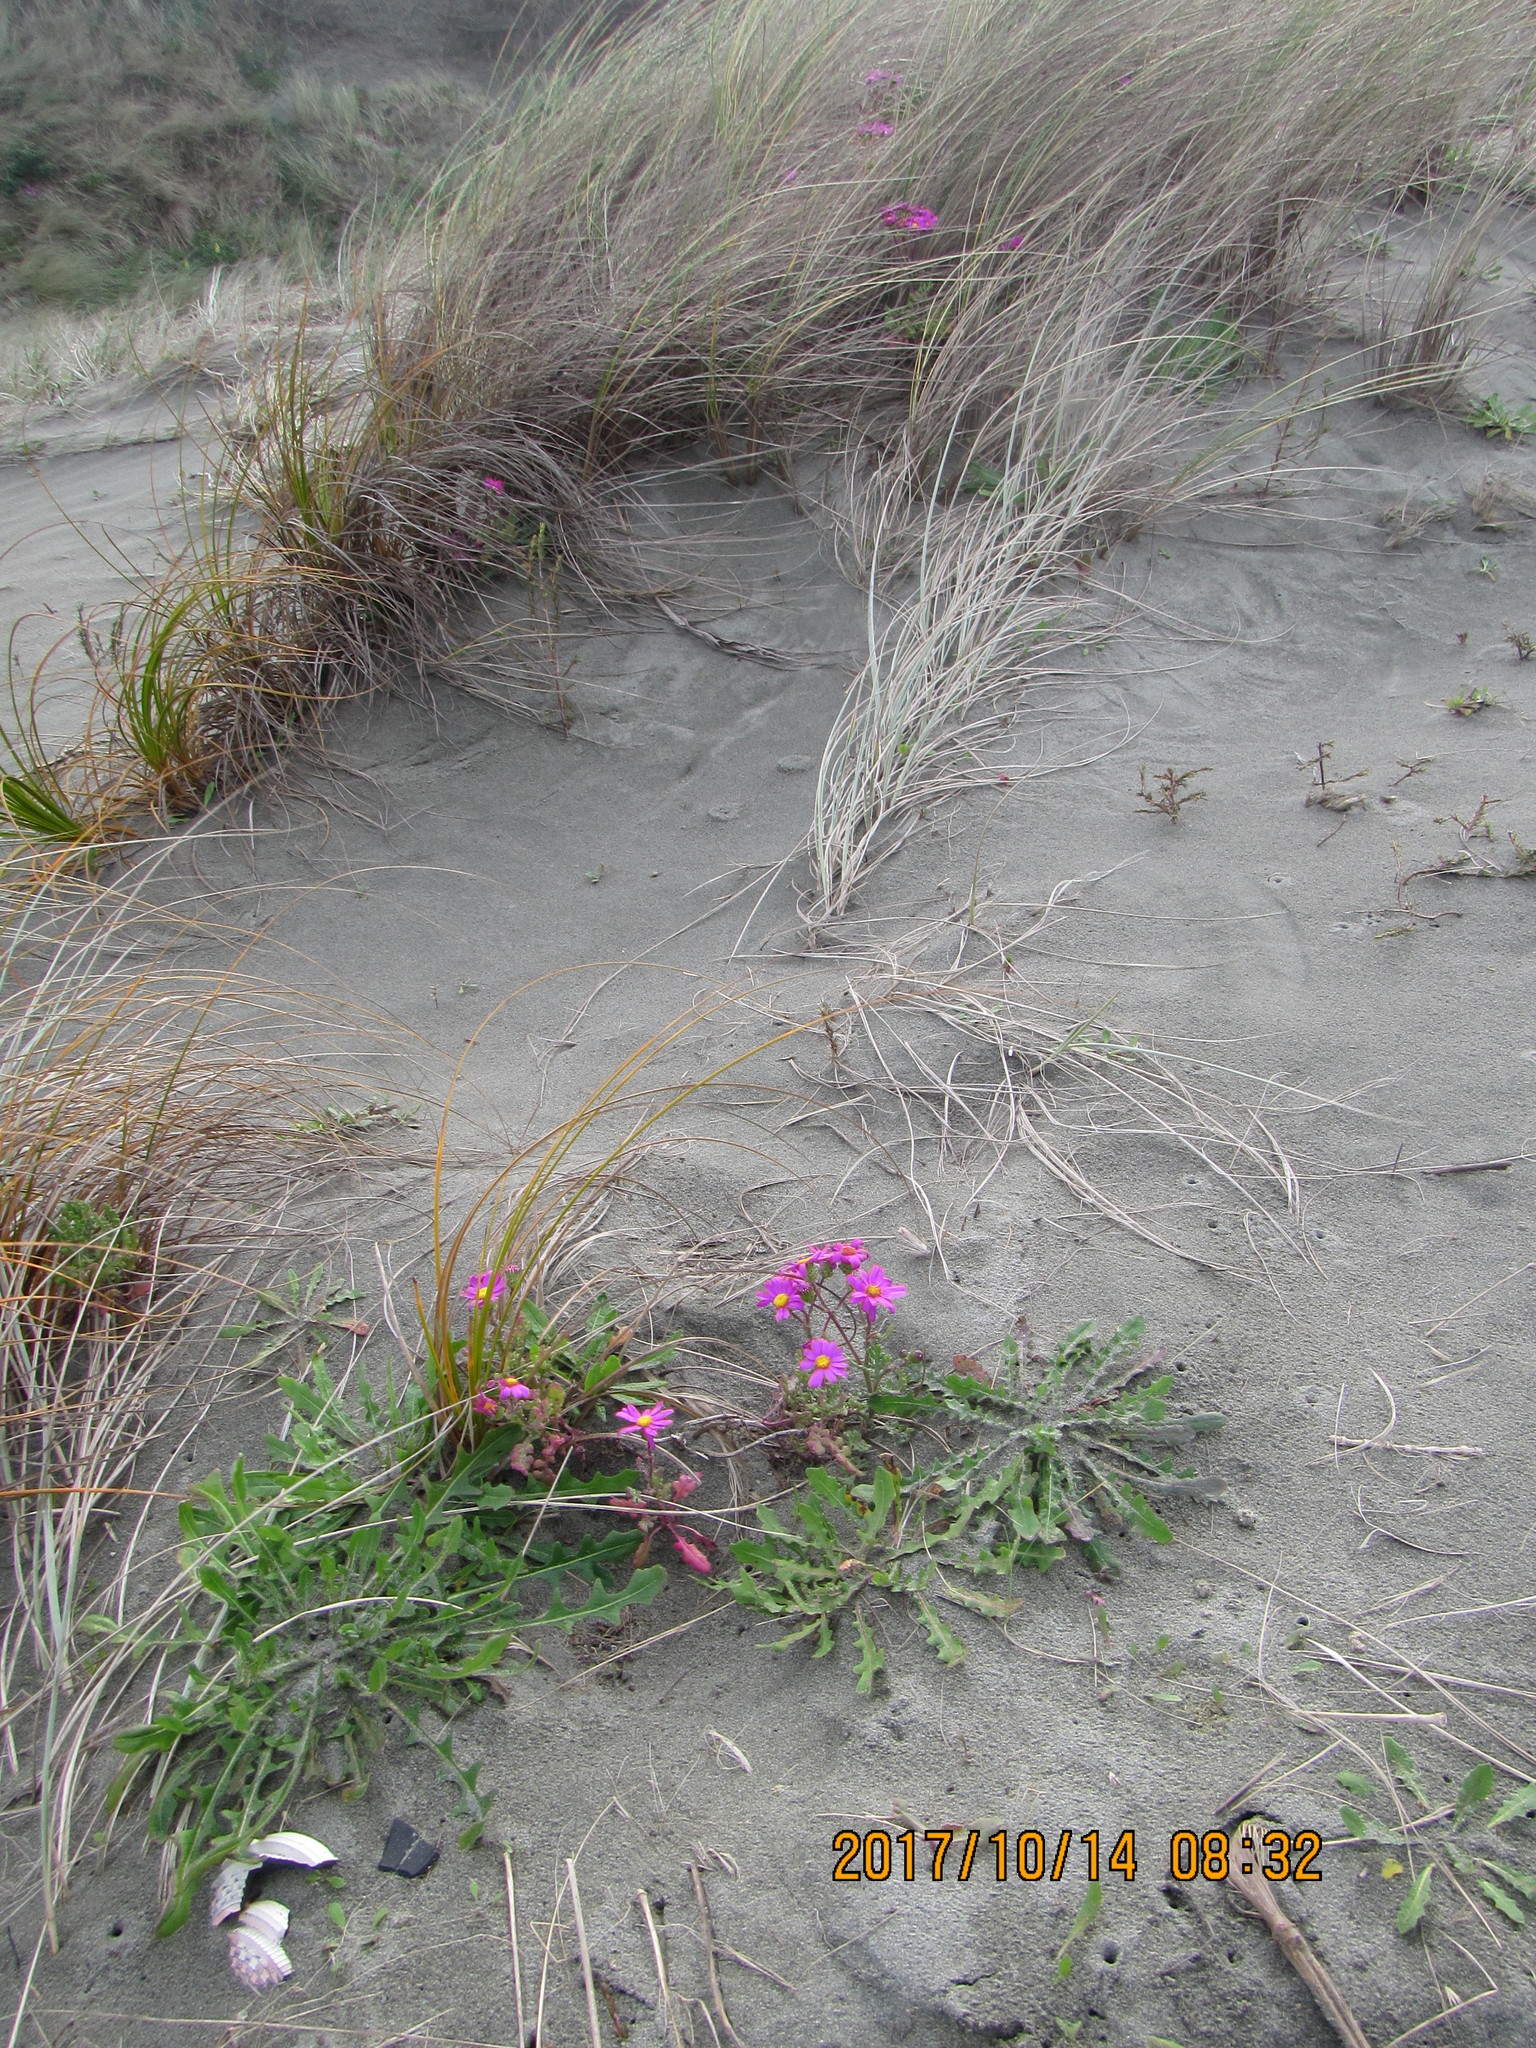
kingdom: Plantae
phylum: Tracheophyta
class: Magnoliopsida
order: Asterales
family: Asteraceae
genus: Senecio
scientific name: Senecio elegans
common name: Purple groundsel
